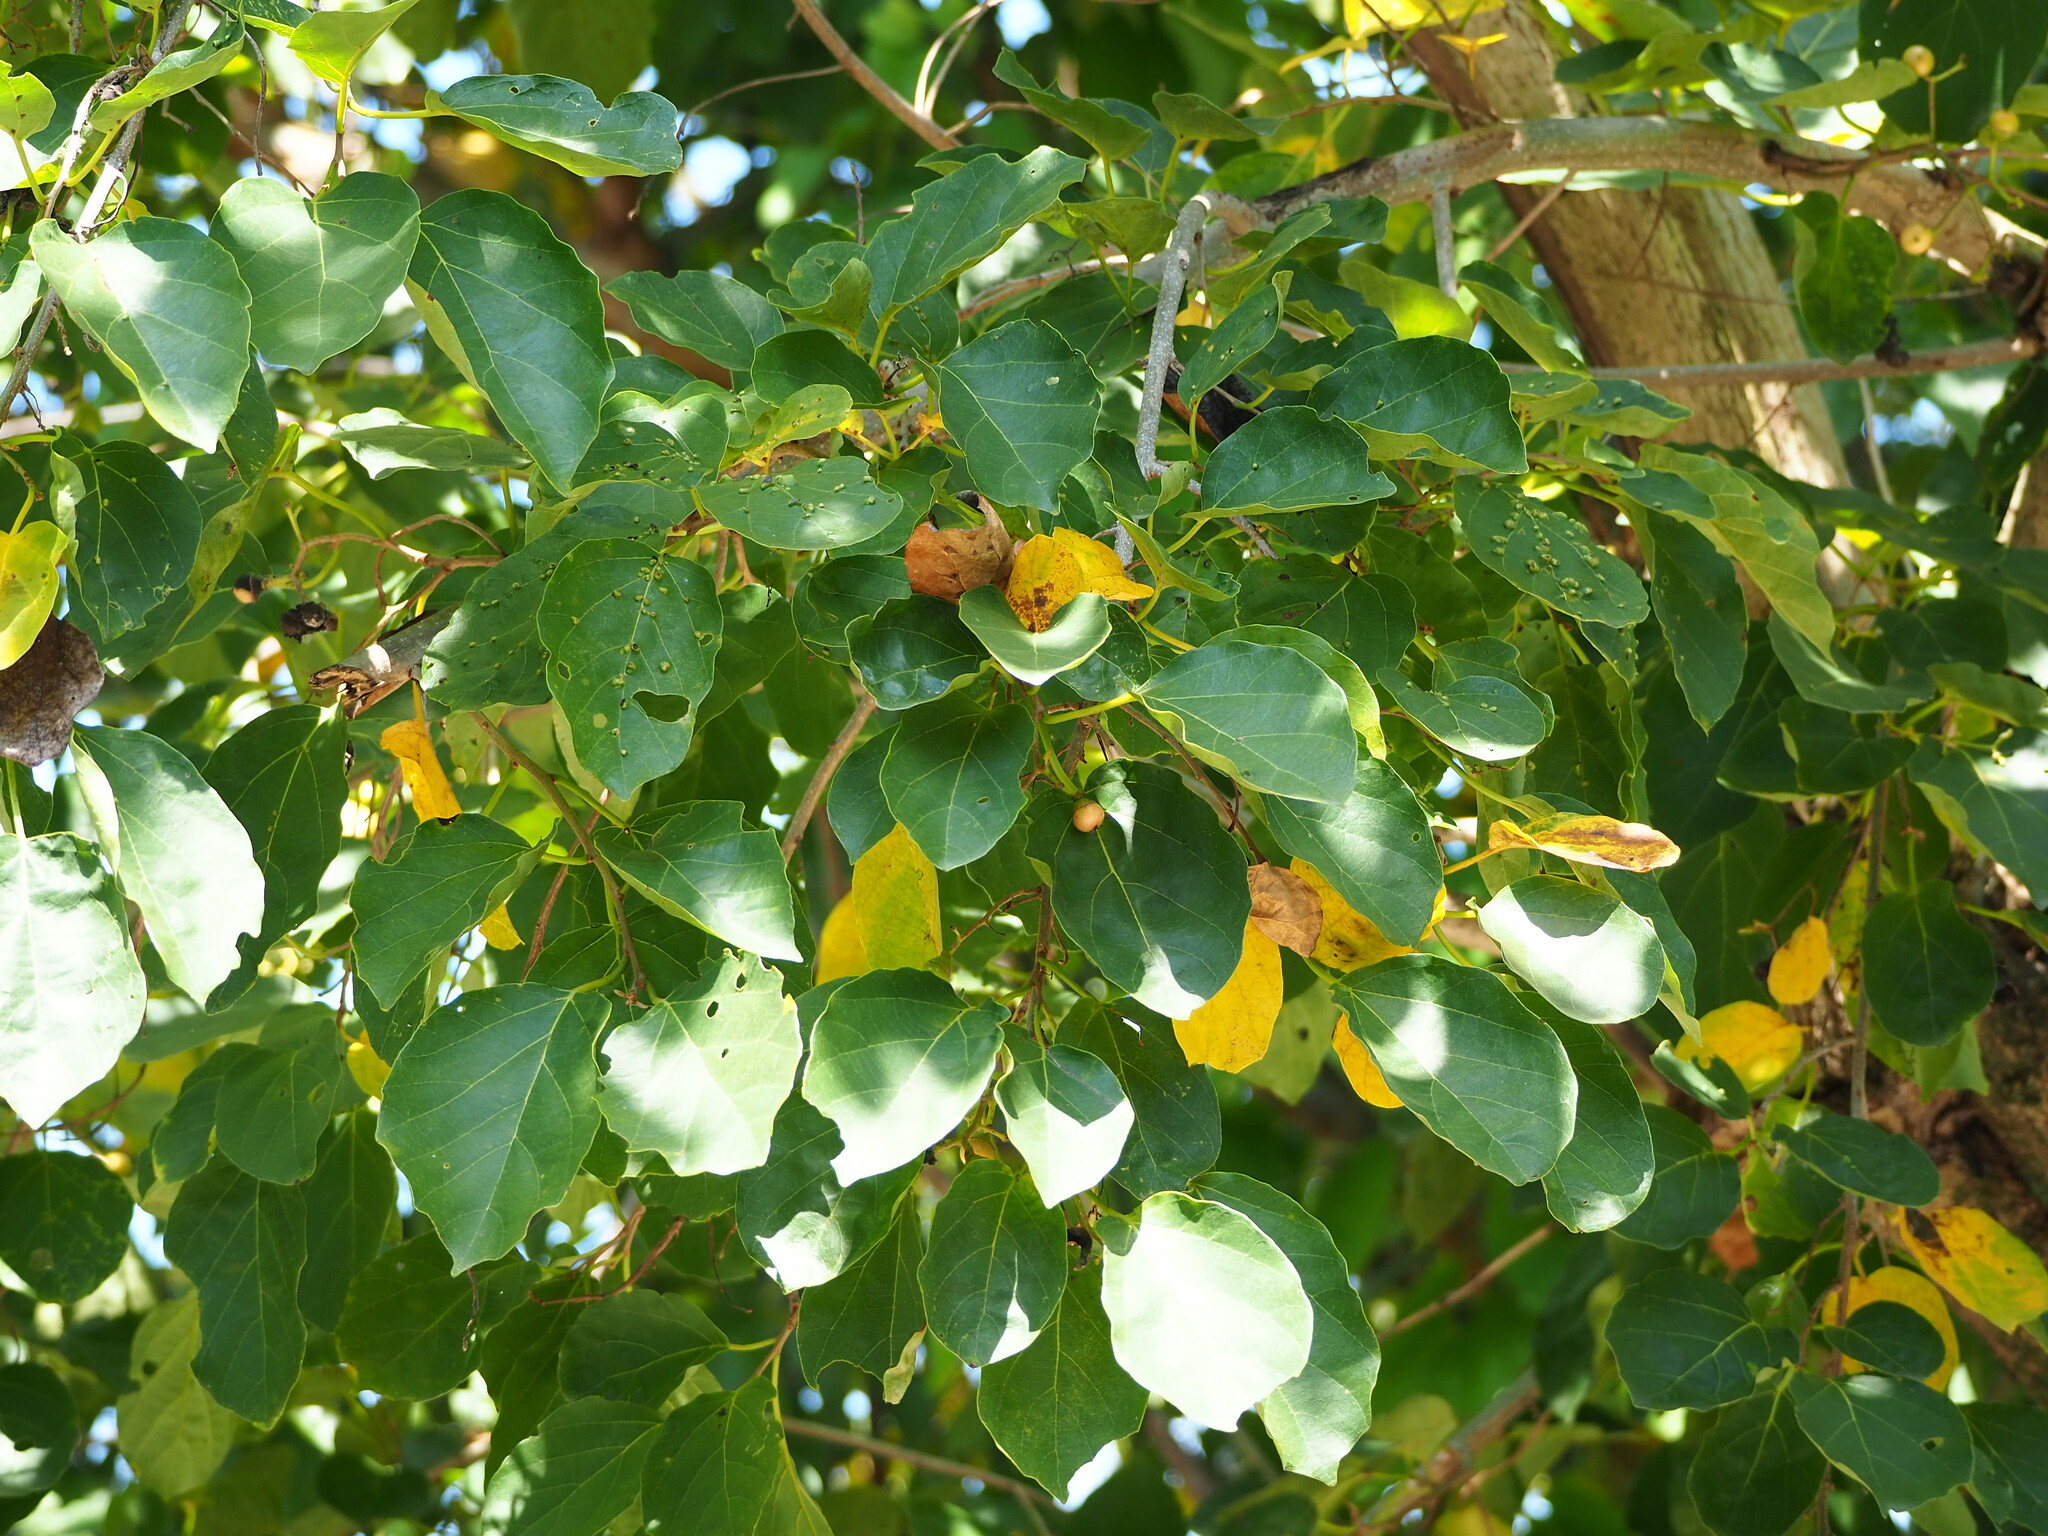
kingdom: Plantae
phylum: Tracheophyta
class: Magnoliopsida
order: Boraginales
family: Cordiaceae
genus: Cordia
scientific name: Cordia dichotoma
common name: Fragrant manjack
